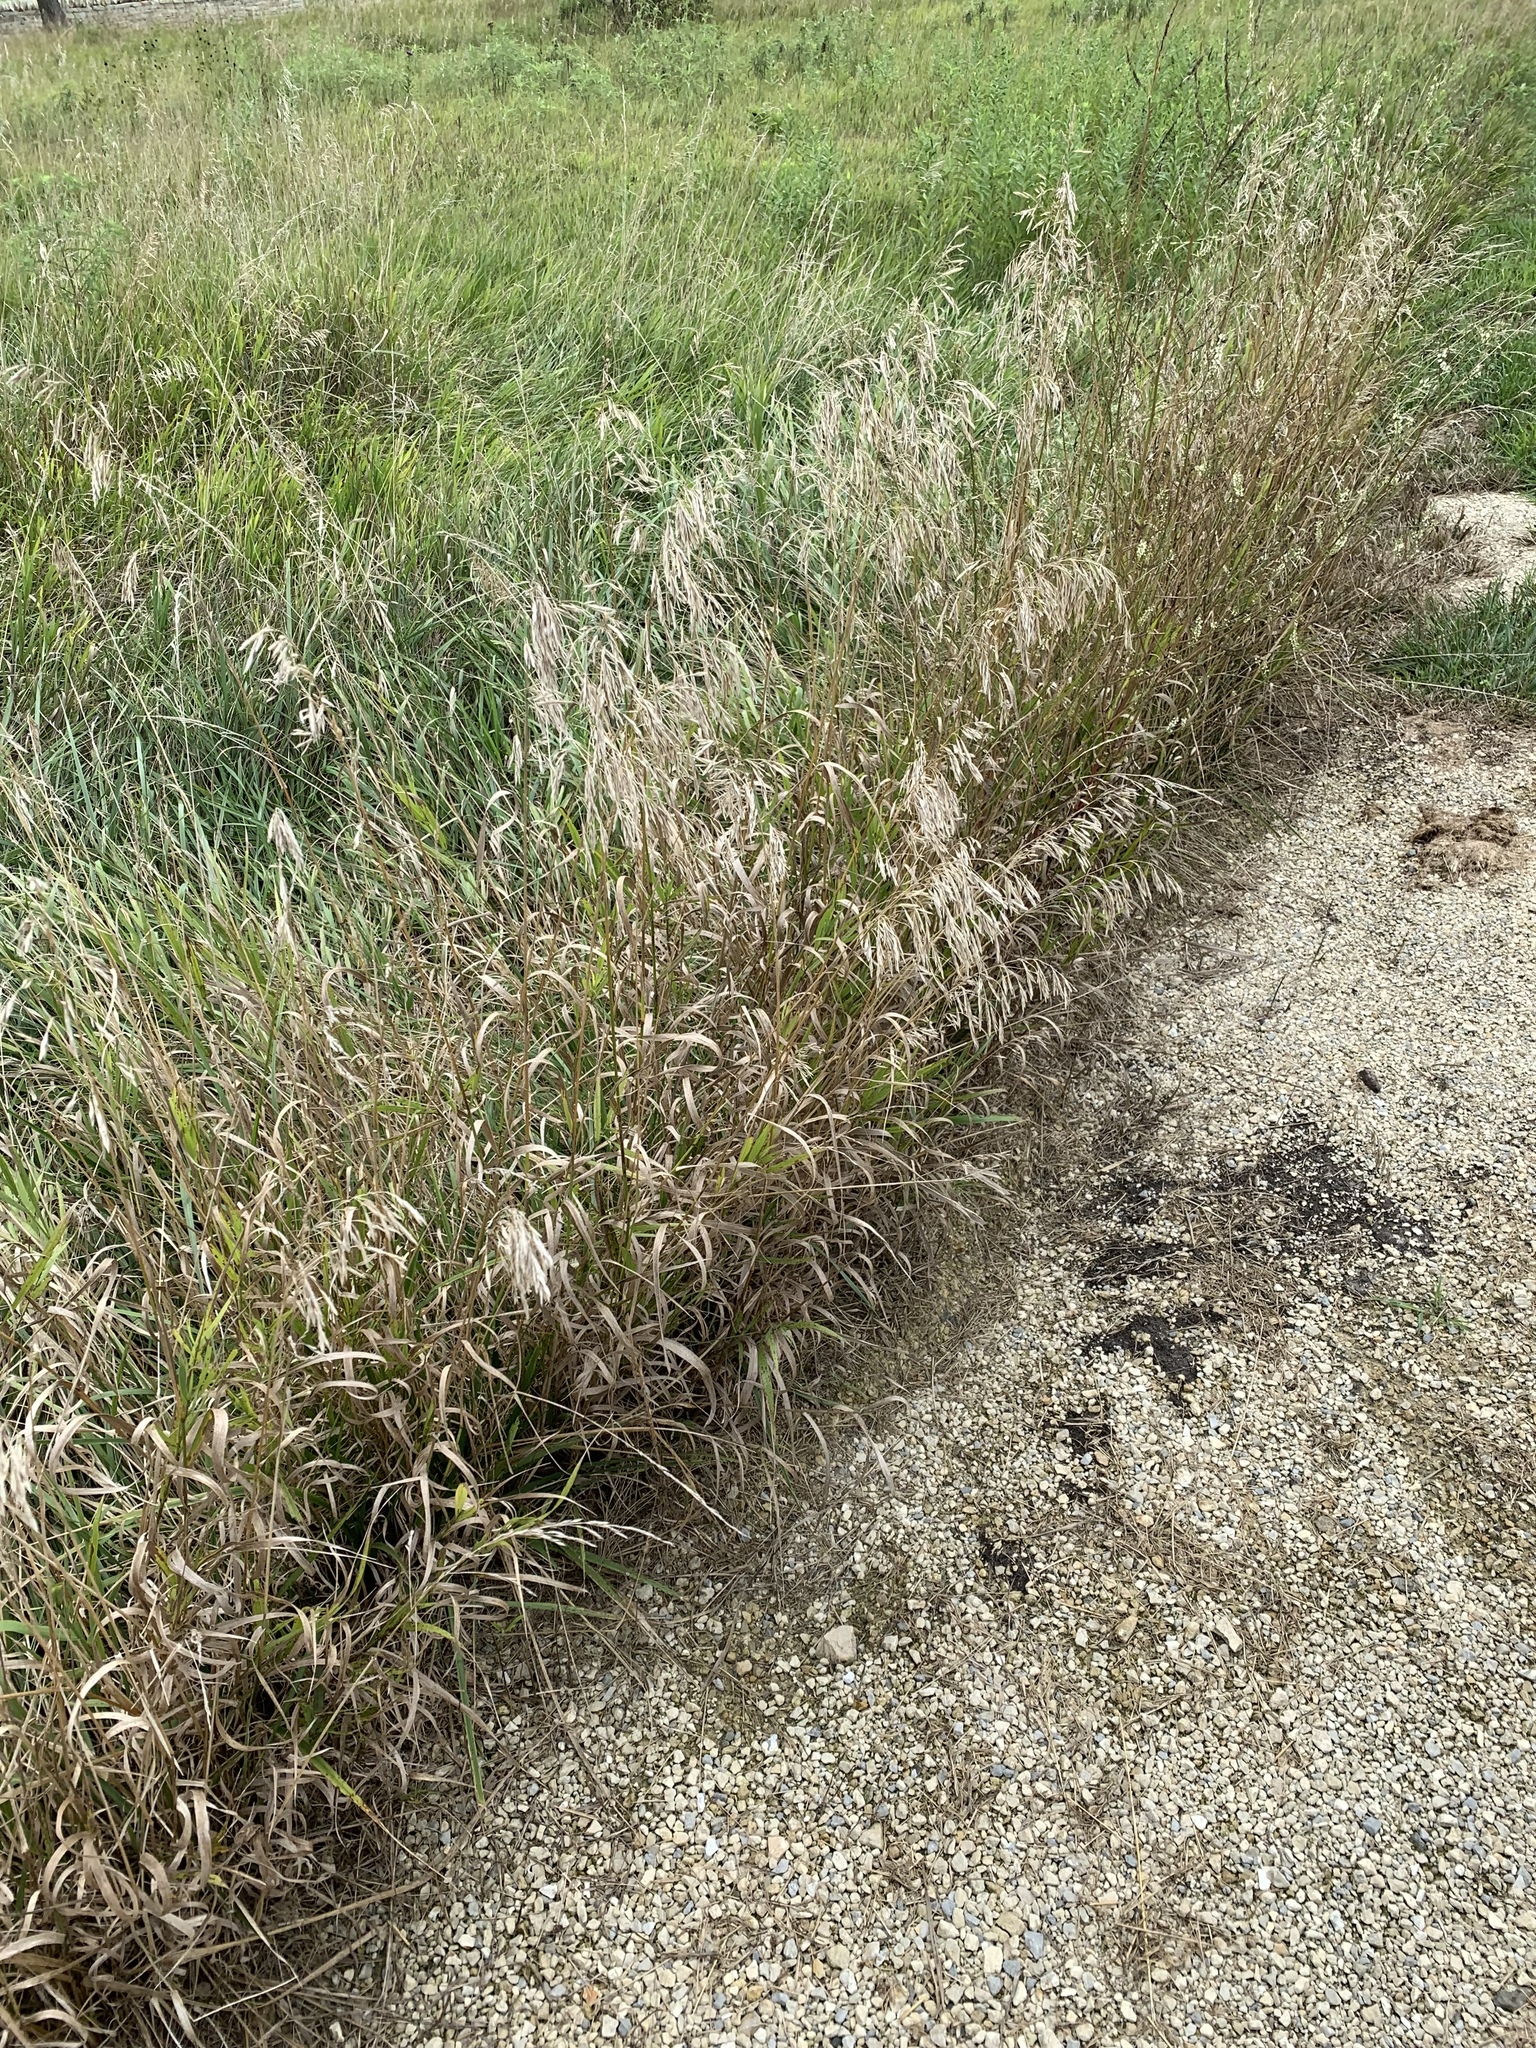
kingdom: Plantae
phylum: Tracheophyta
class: Liliopsida
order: Poales
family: Poaceae
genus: Bromus
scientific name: Bromus inermis
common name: Smooth brome
